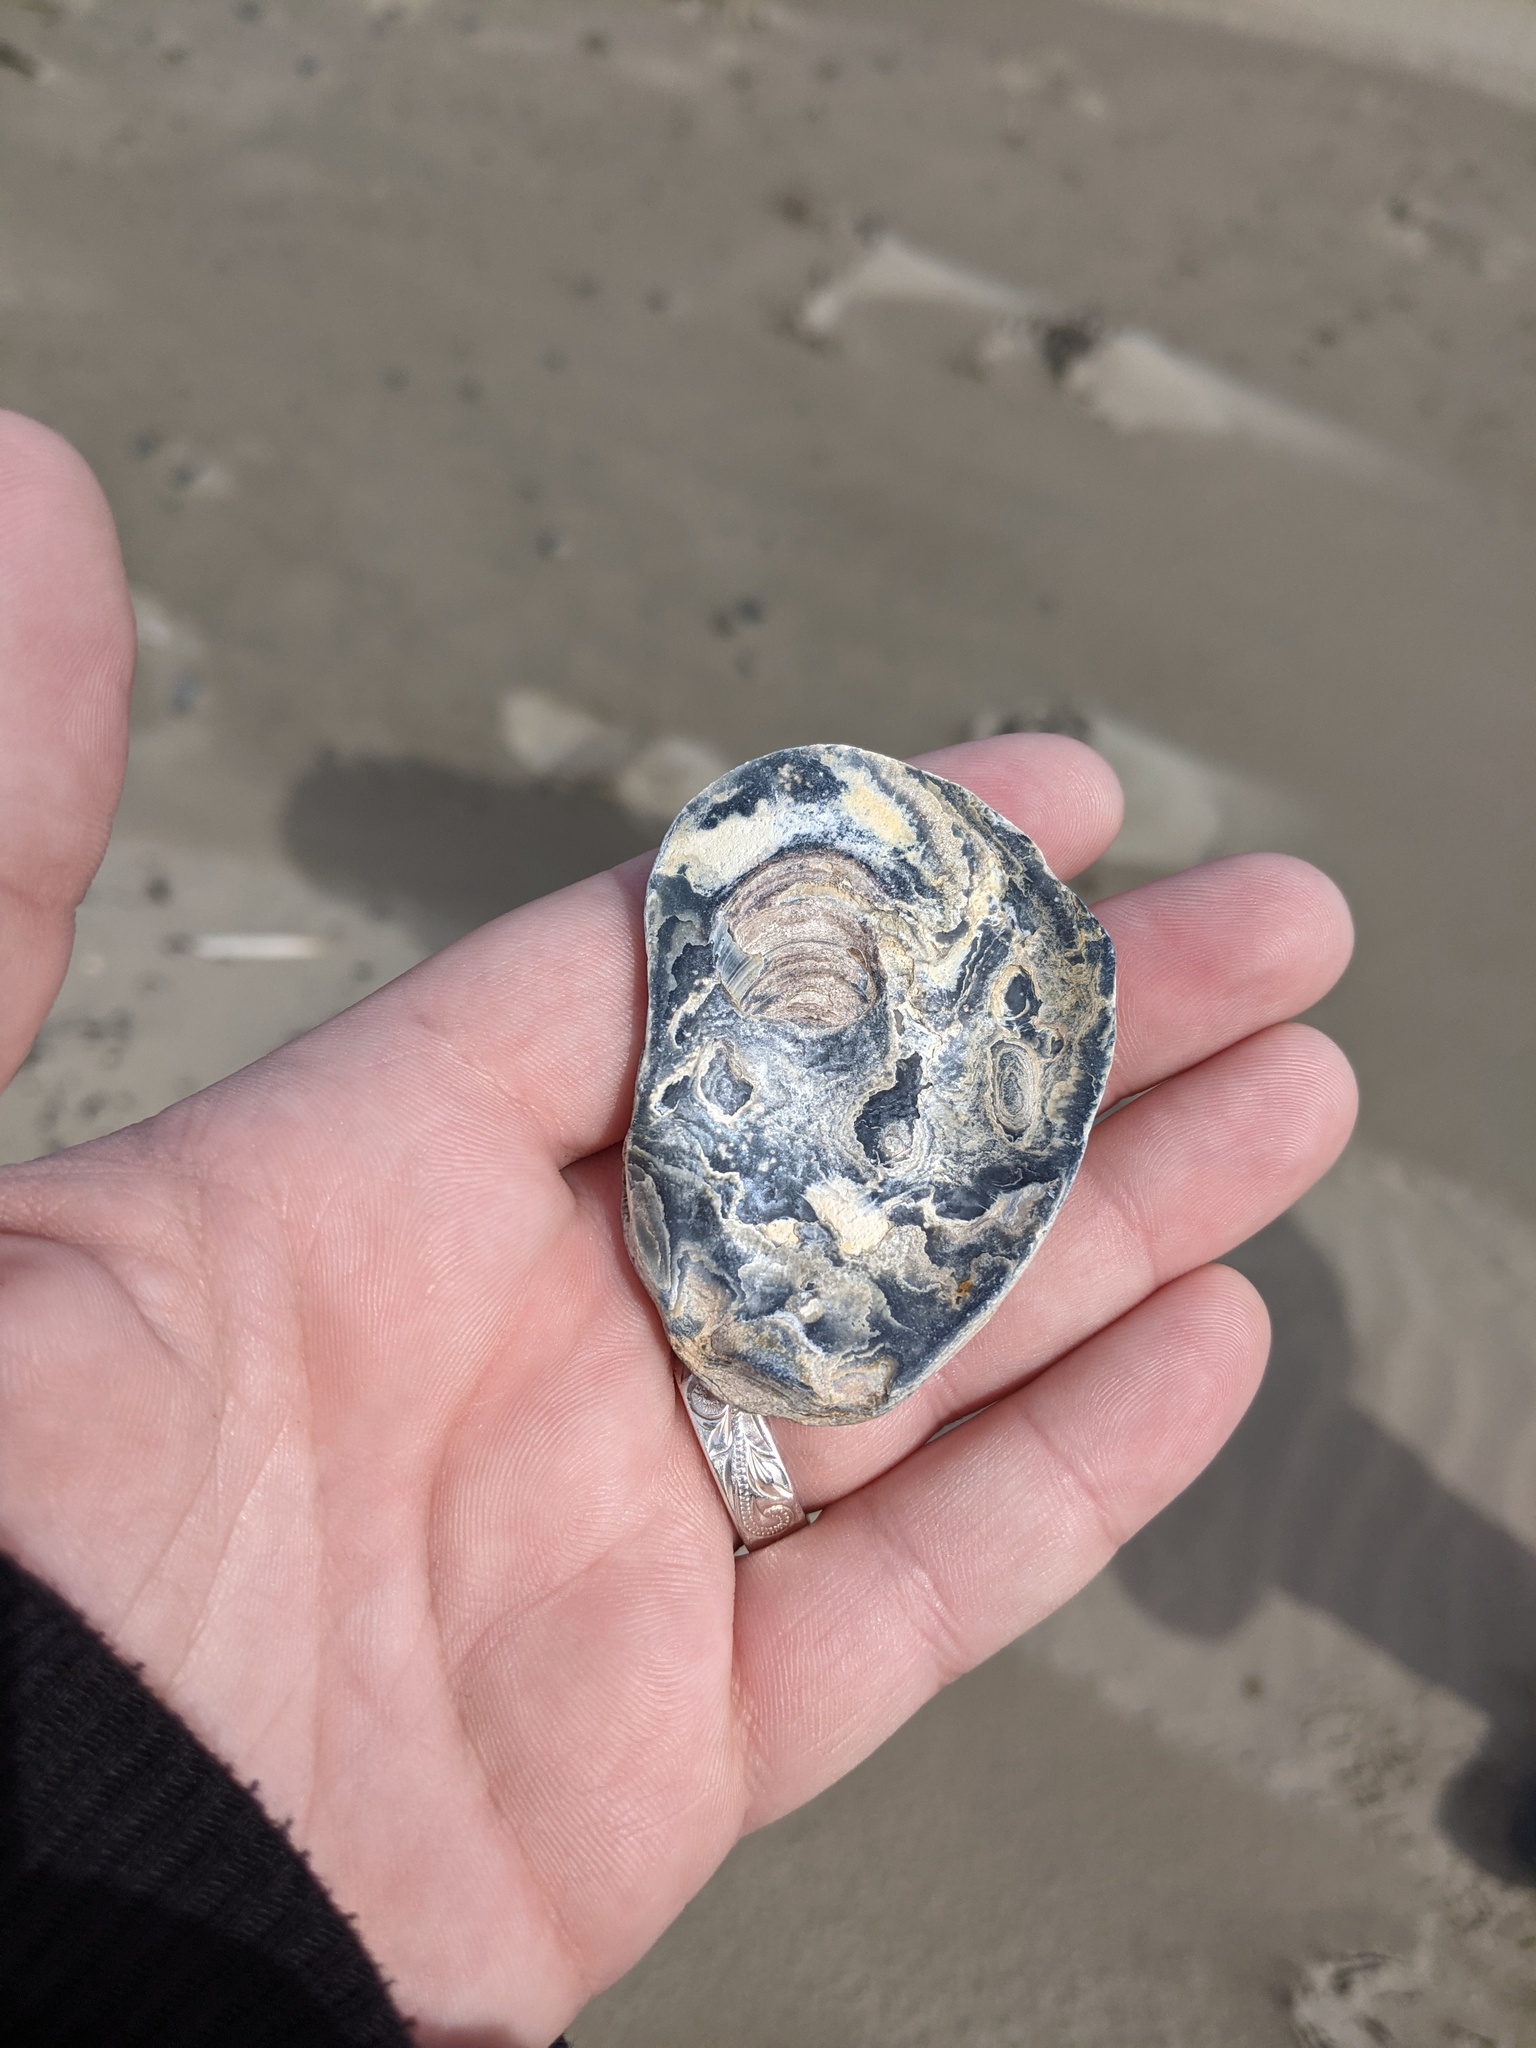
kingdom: Animalia
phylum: Mollusca
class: Bivalvia
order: Ostreida
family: Ostreidae
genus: Crassostrea
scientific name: Crassostrea virginica
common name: American oyster
